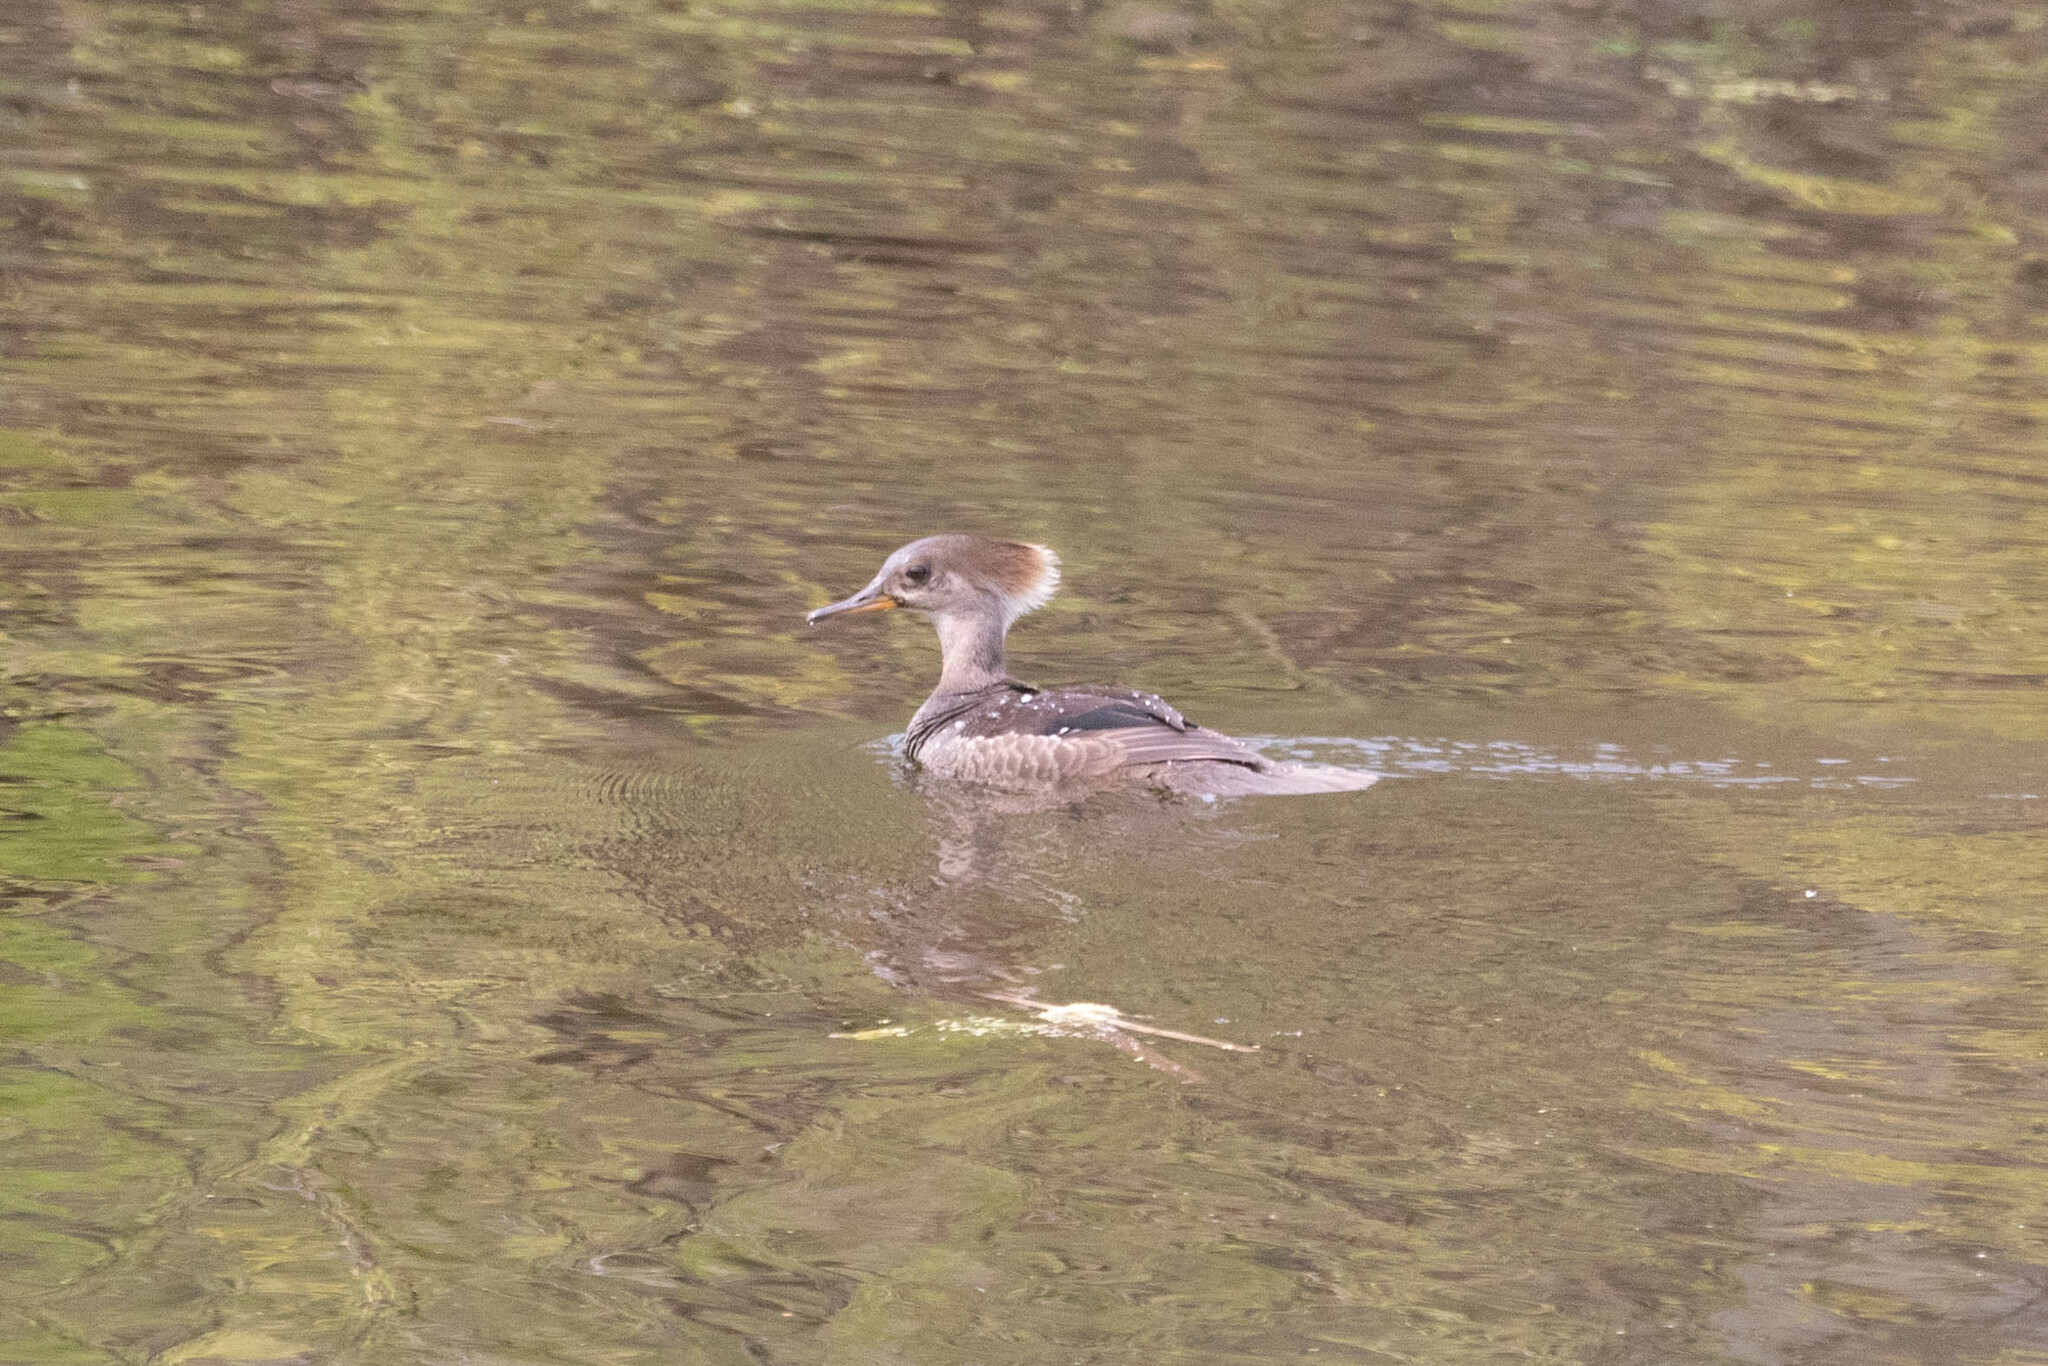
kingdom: Animalia
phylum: Chordata
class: Aves
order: Anseriformes
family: Anatidae
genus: Lophodytes
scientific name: Lophodytes cucullatus
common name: Hooded merganser
